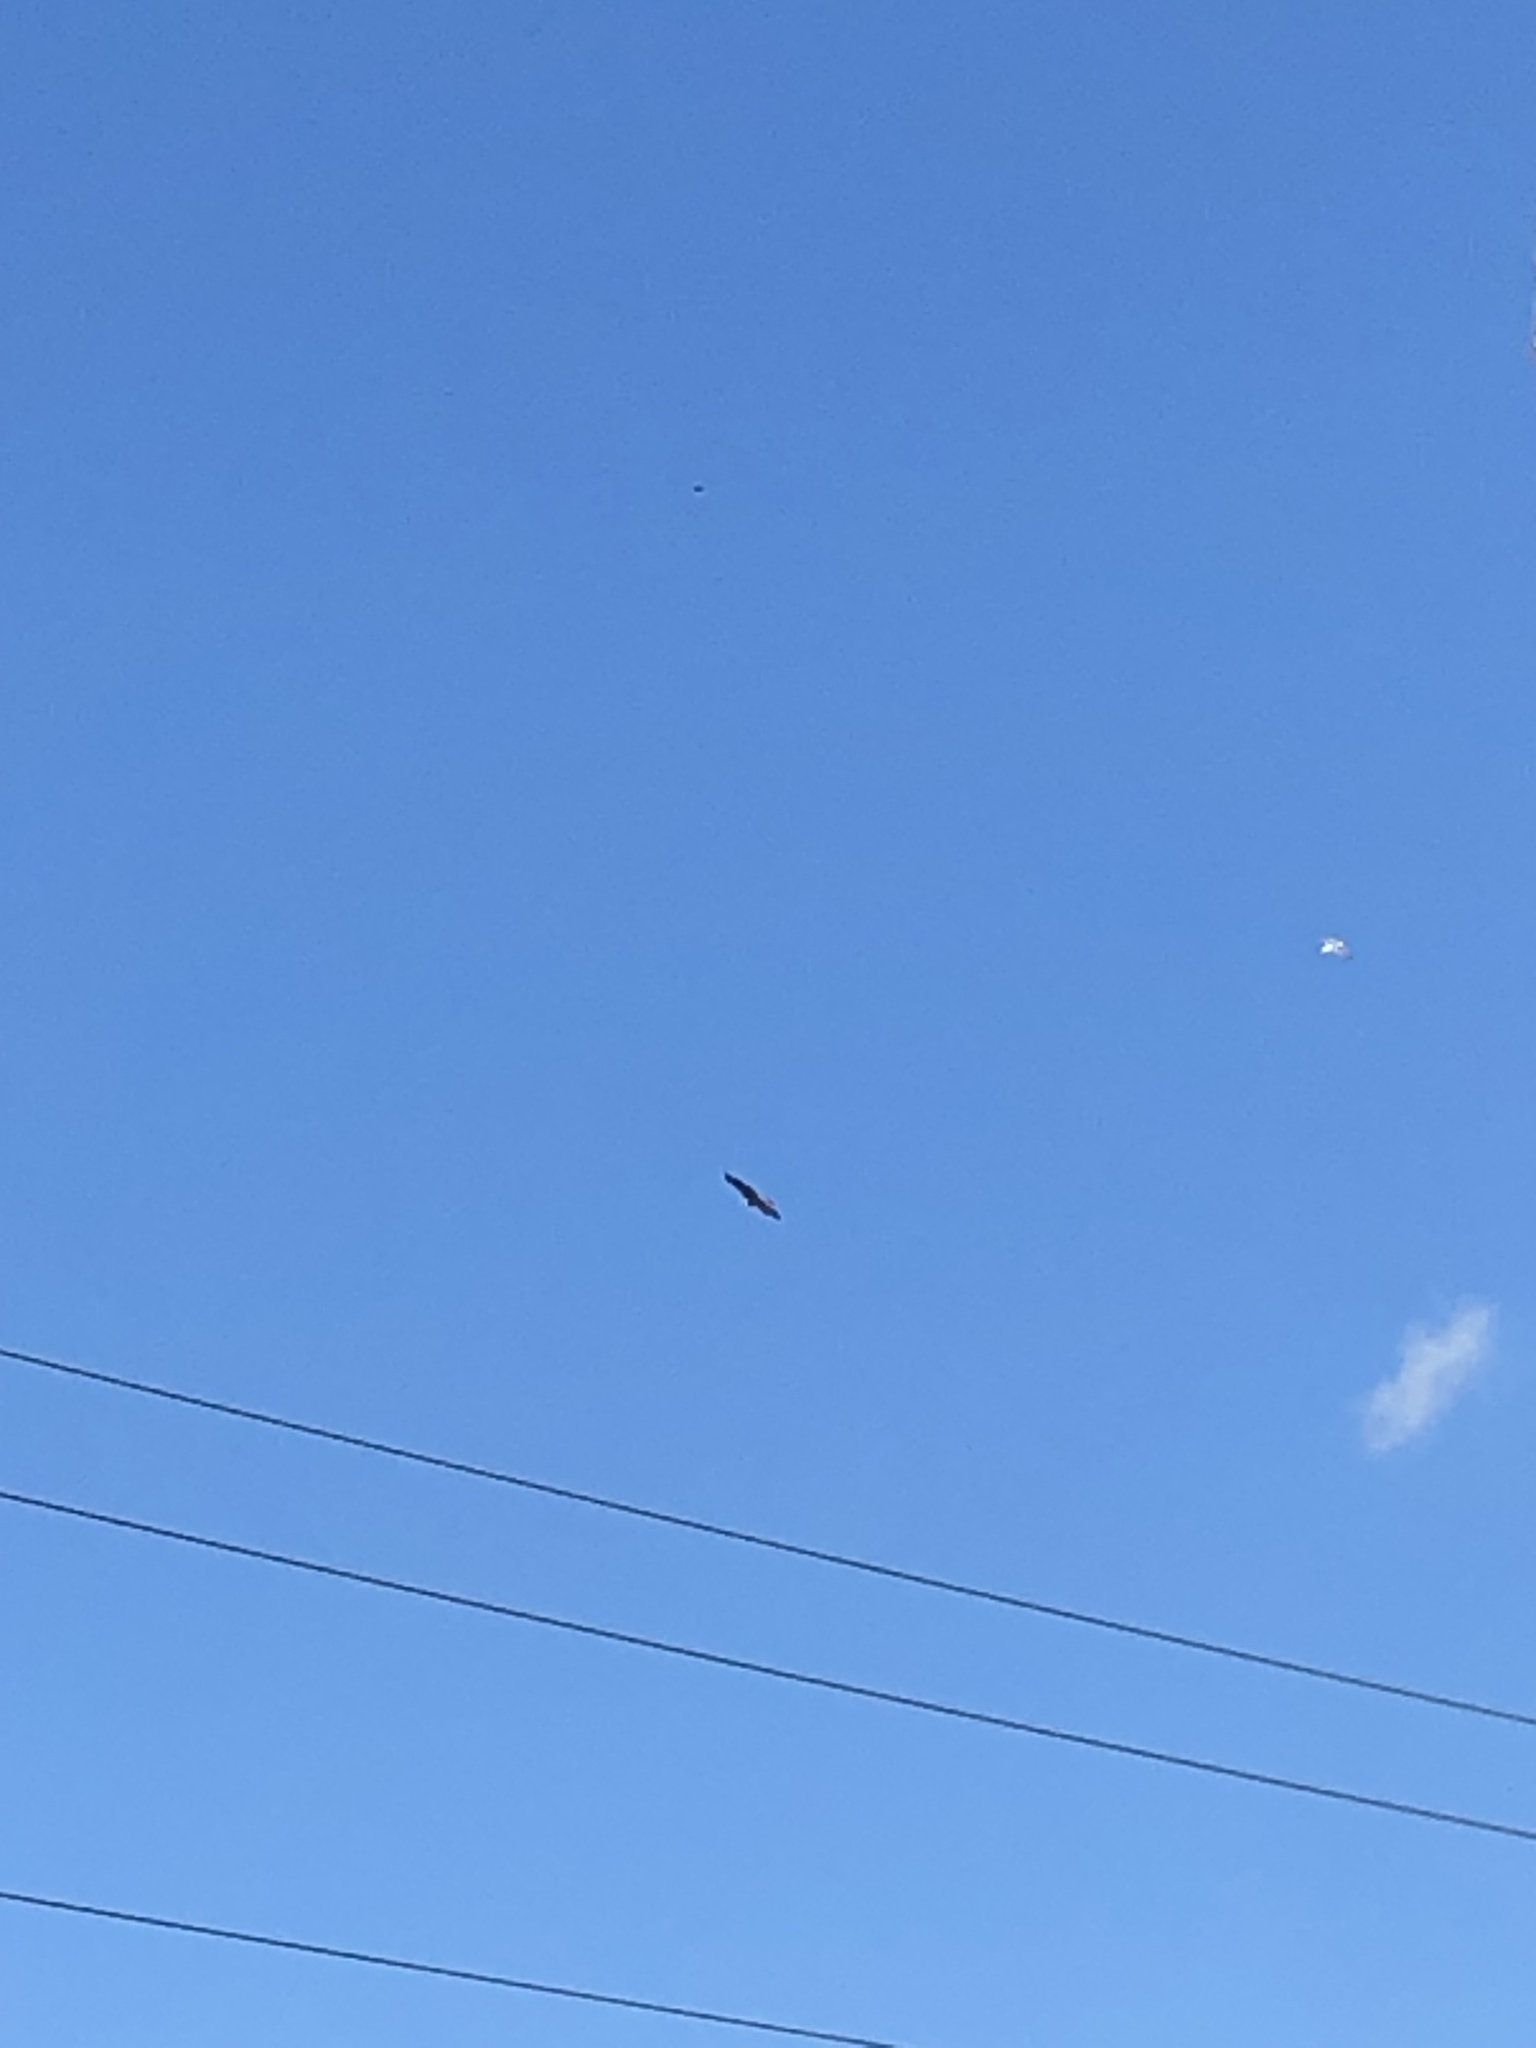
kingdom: Animalia
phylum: Chordata
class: Aves
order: Accipitriformes
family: Accipitridae
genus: Haliaeetus
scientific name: Haliaeetus leucocephalus
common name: Bald eagle
